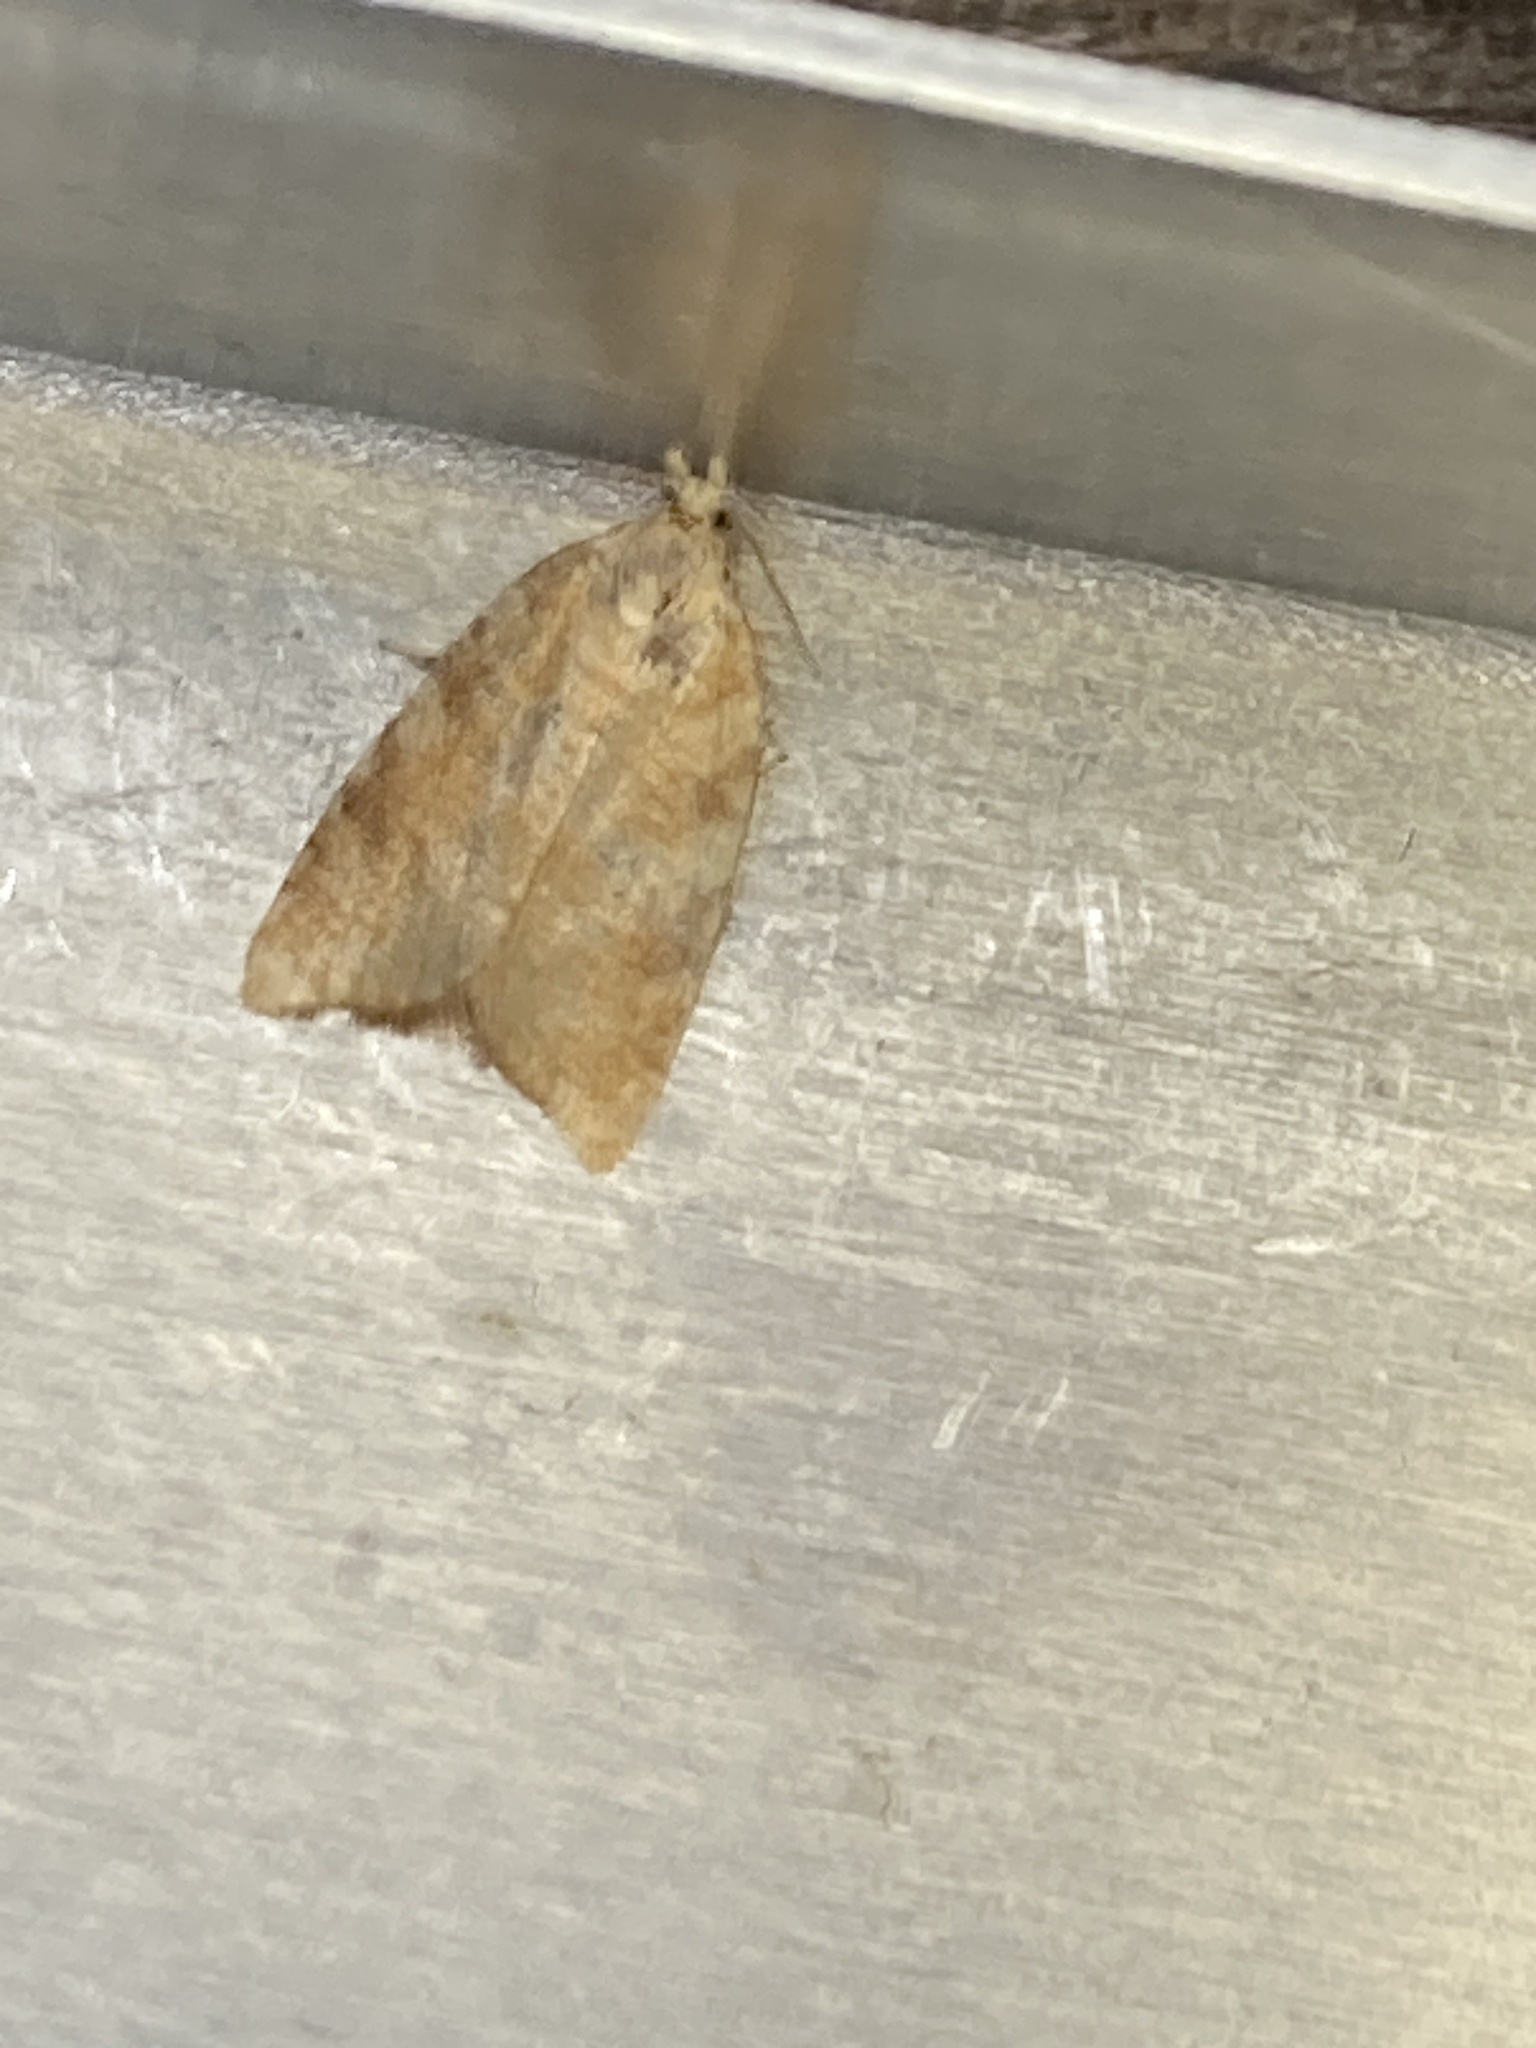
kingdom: Animalia
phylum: Arthropoda
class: Insecta
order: Lepidoptera
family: Tortricidae
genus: Aleimma
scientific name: Aleimma loeflingiana
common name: Yellow oak button
